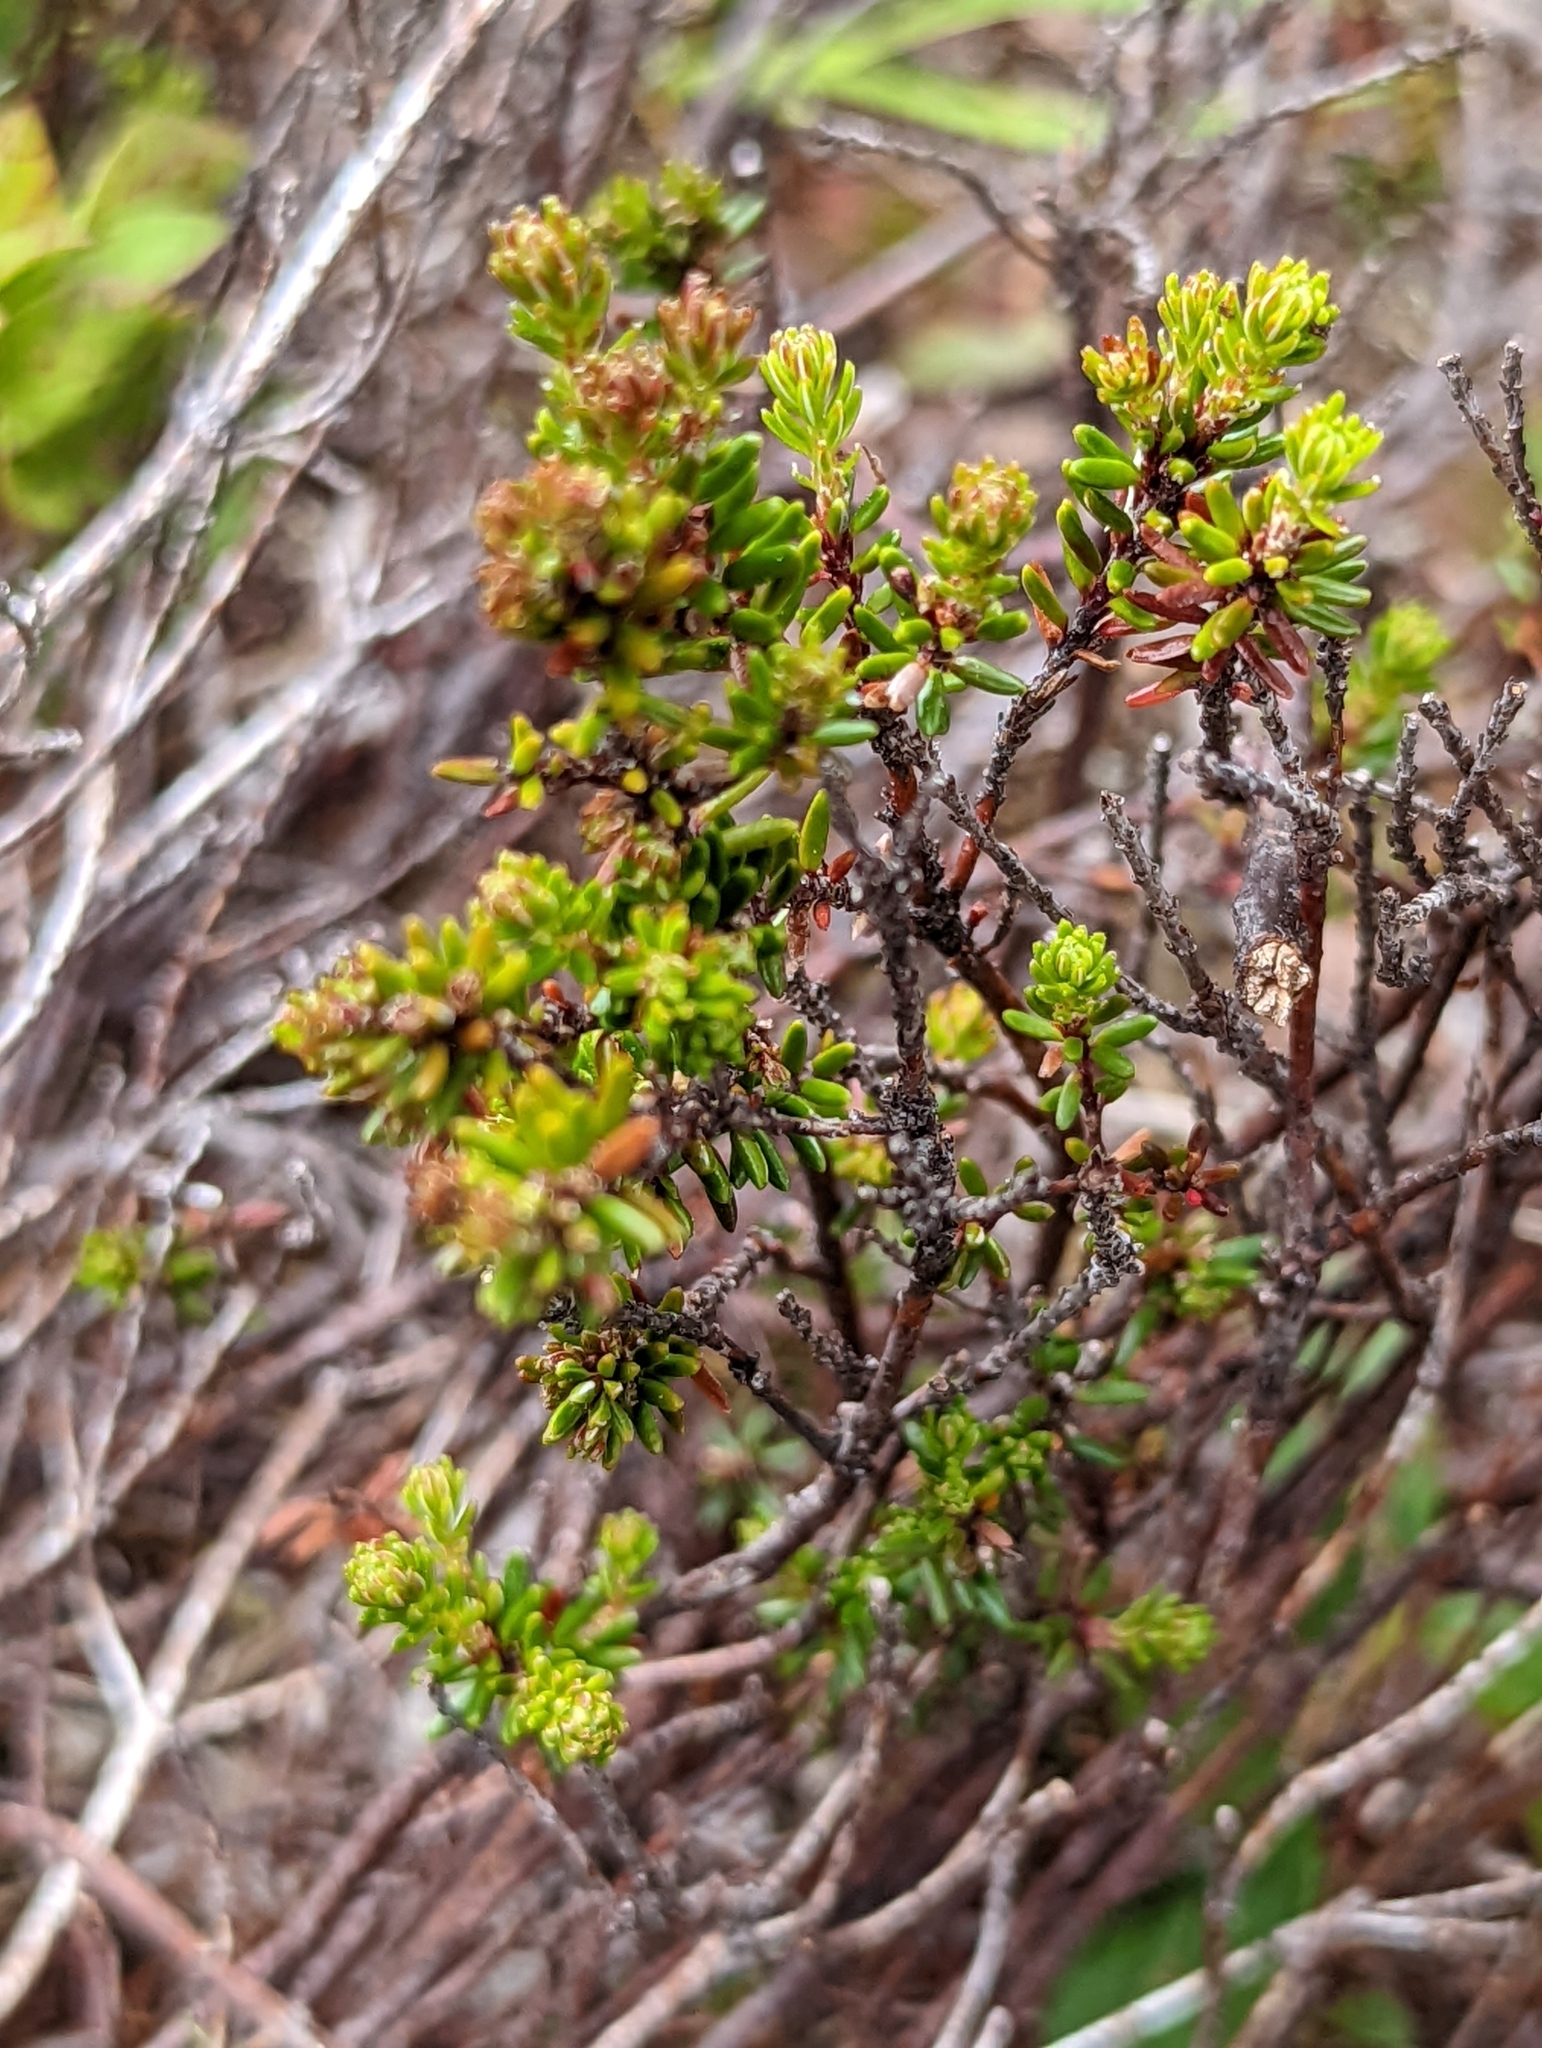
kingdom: Plantae
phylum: Tracheophyta
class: Magnoliopsida
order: Ericales
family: Ericaceae
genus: Empetrum
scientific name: Empetrum nigrum
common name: Black crowberry
